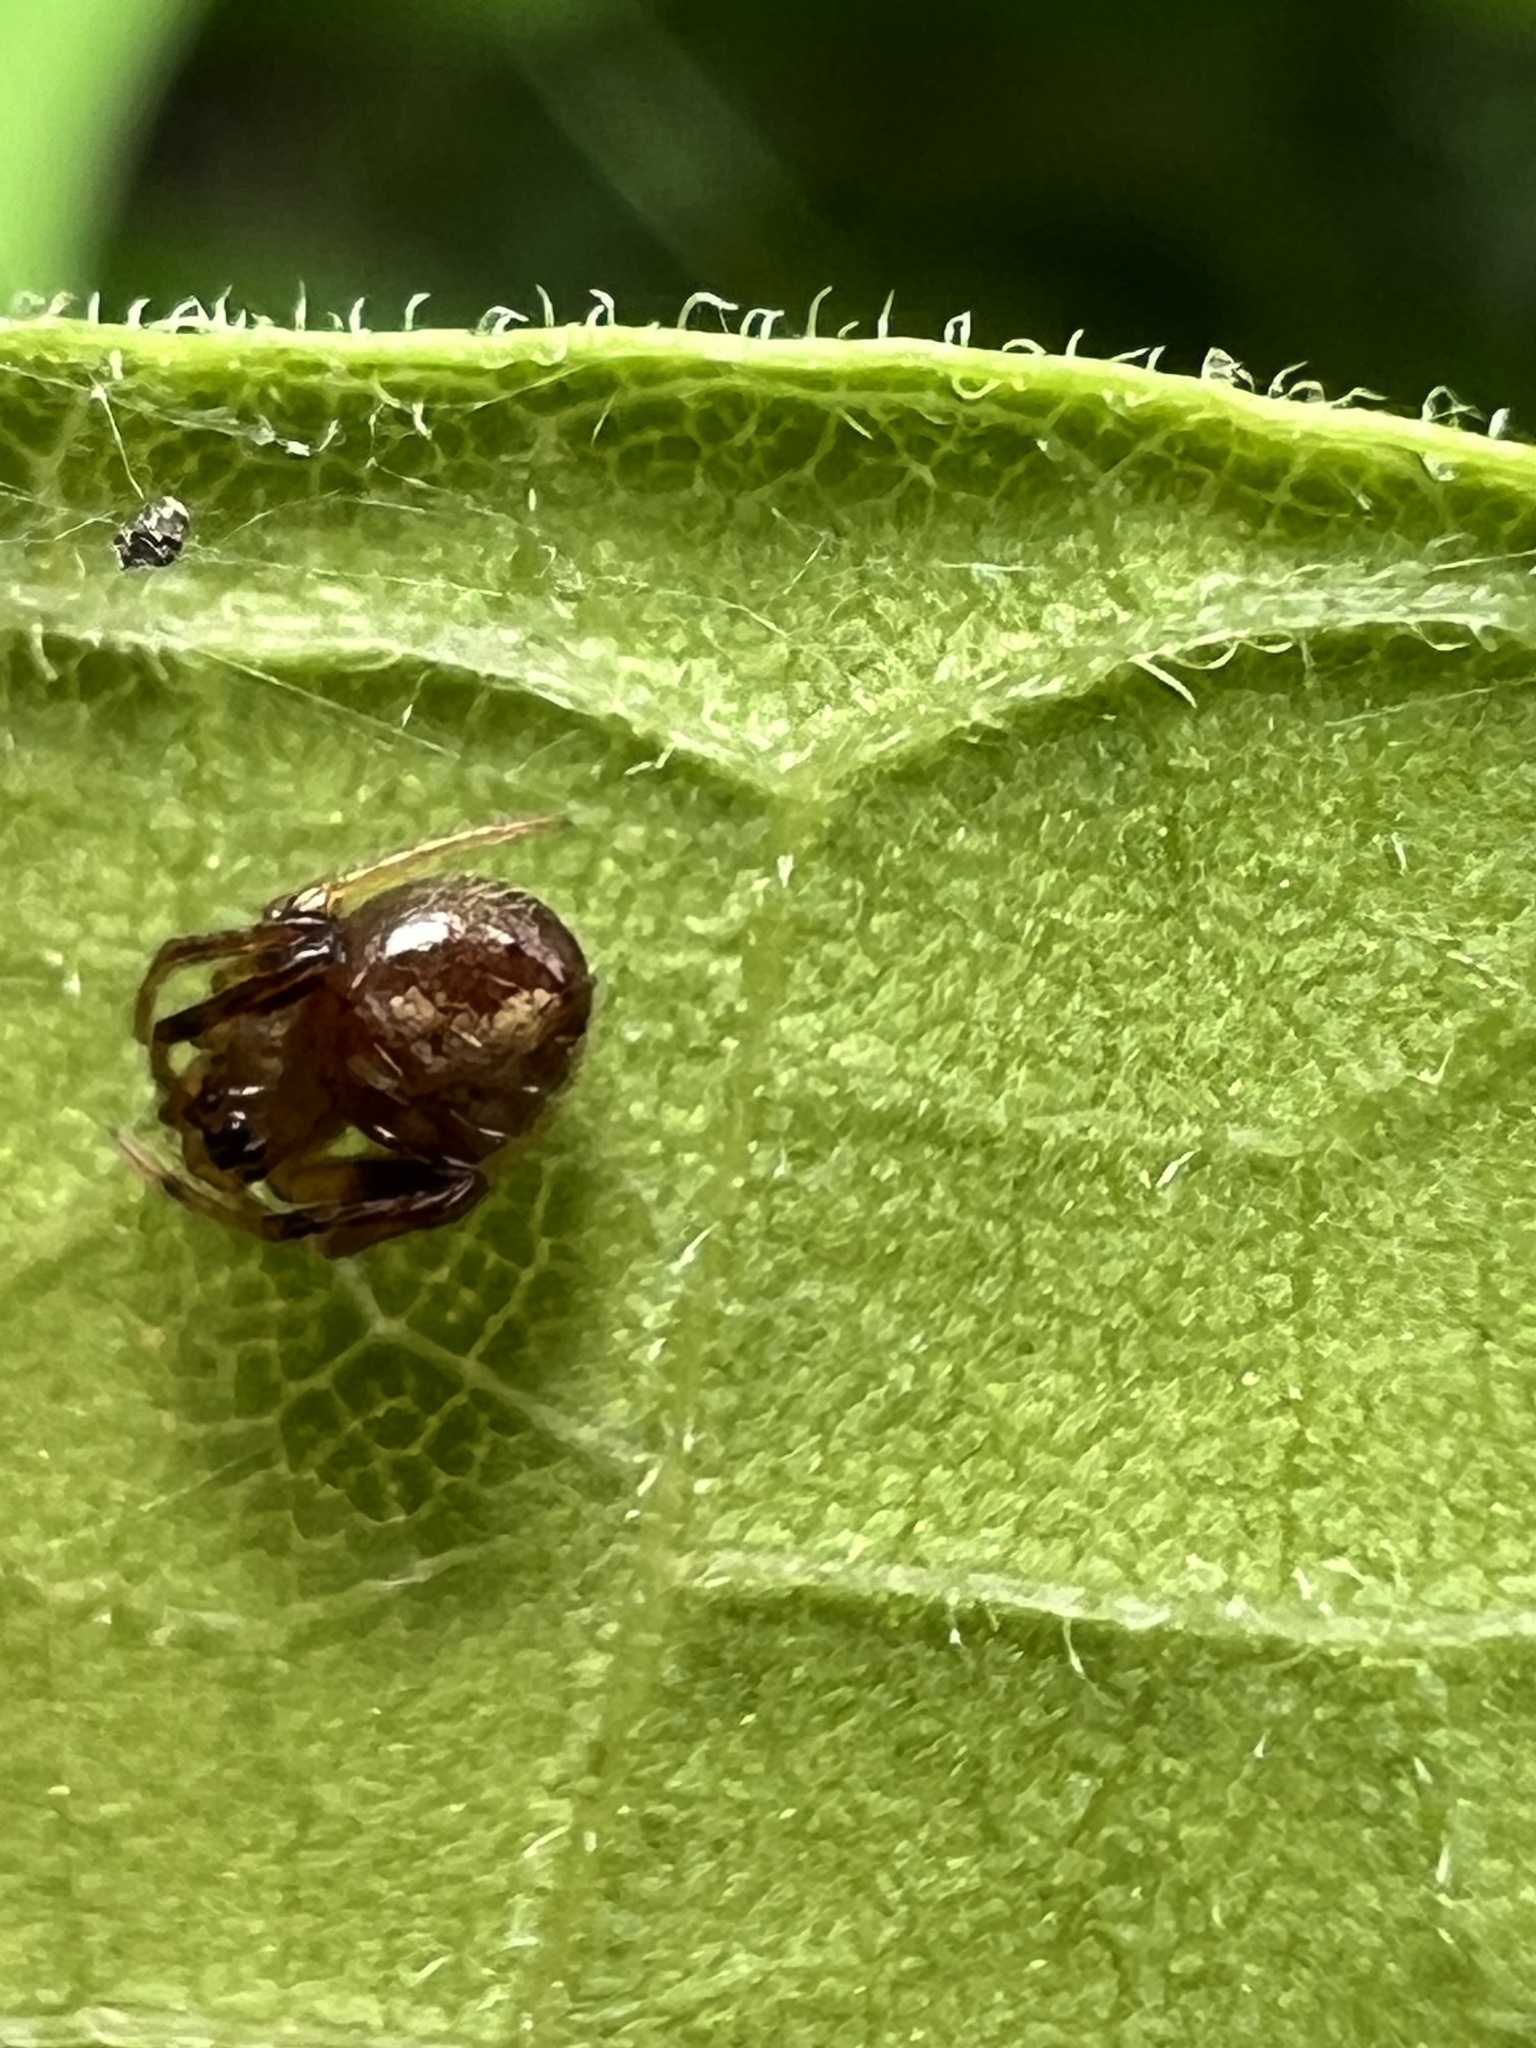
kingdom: Animalia
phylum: Arthropoda
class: Arachnida
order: Araneae
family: Araneidae
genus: Verrucosa
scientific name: Verrucosa arenata
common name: Orb weavers
